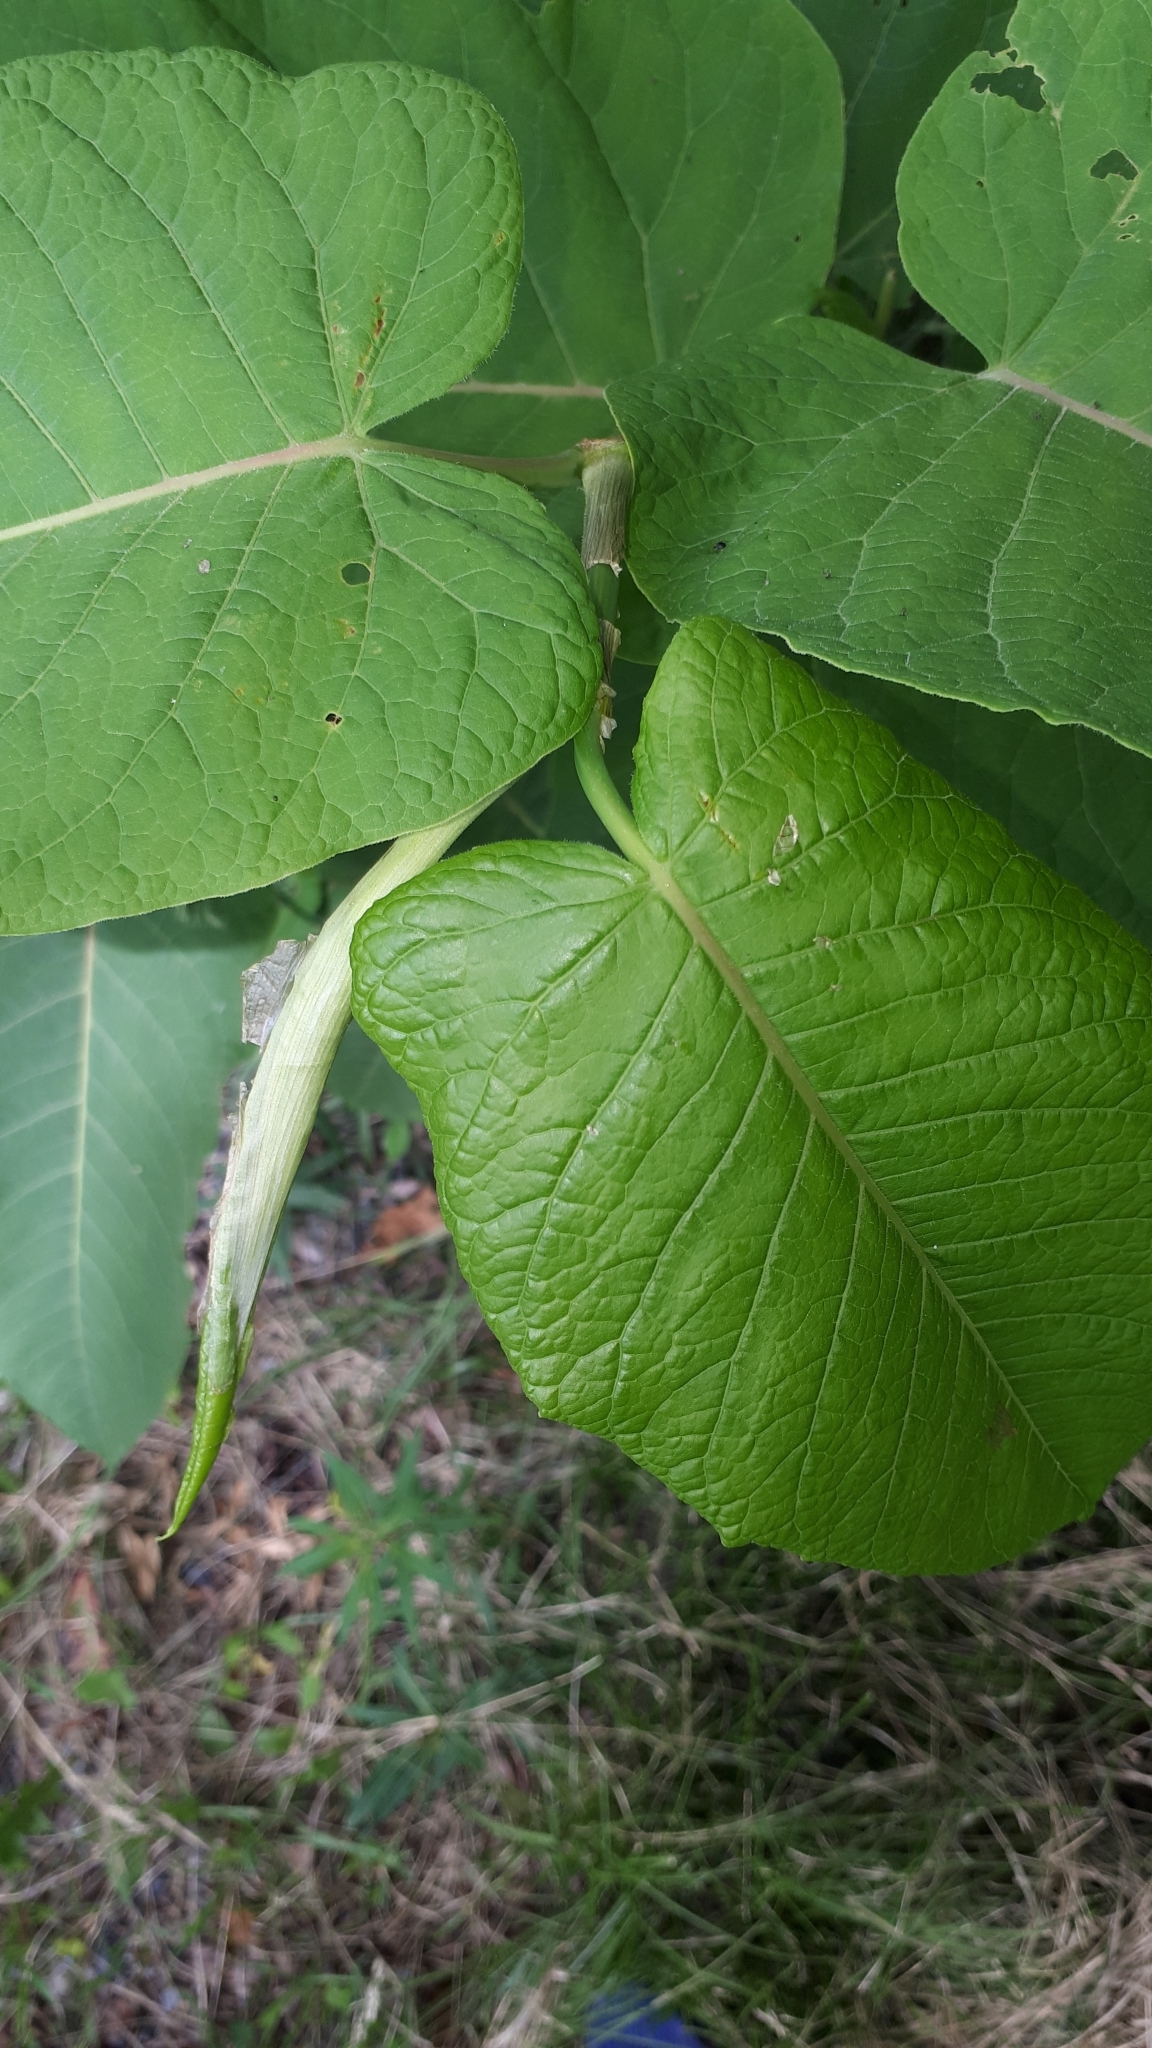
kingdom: Plantae
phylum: Tracheophyta
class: Magnoliopsida
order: Caryophyllales
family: Polygonaceae
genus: Reynoutria
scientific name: Reynoutria sachalinensis
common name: Giant knotweed
